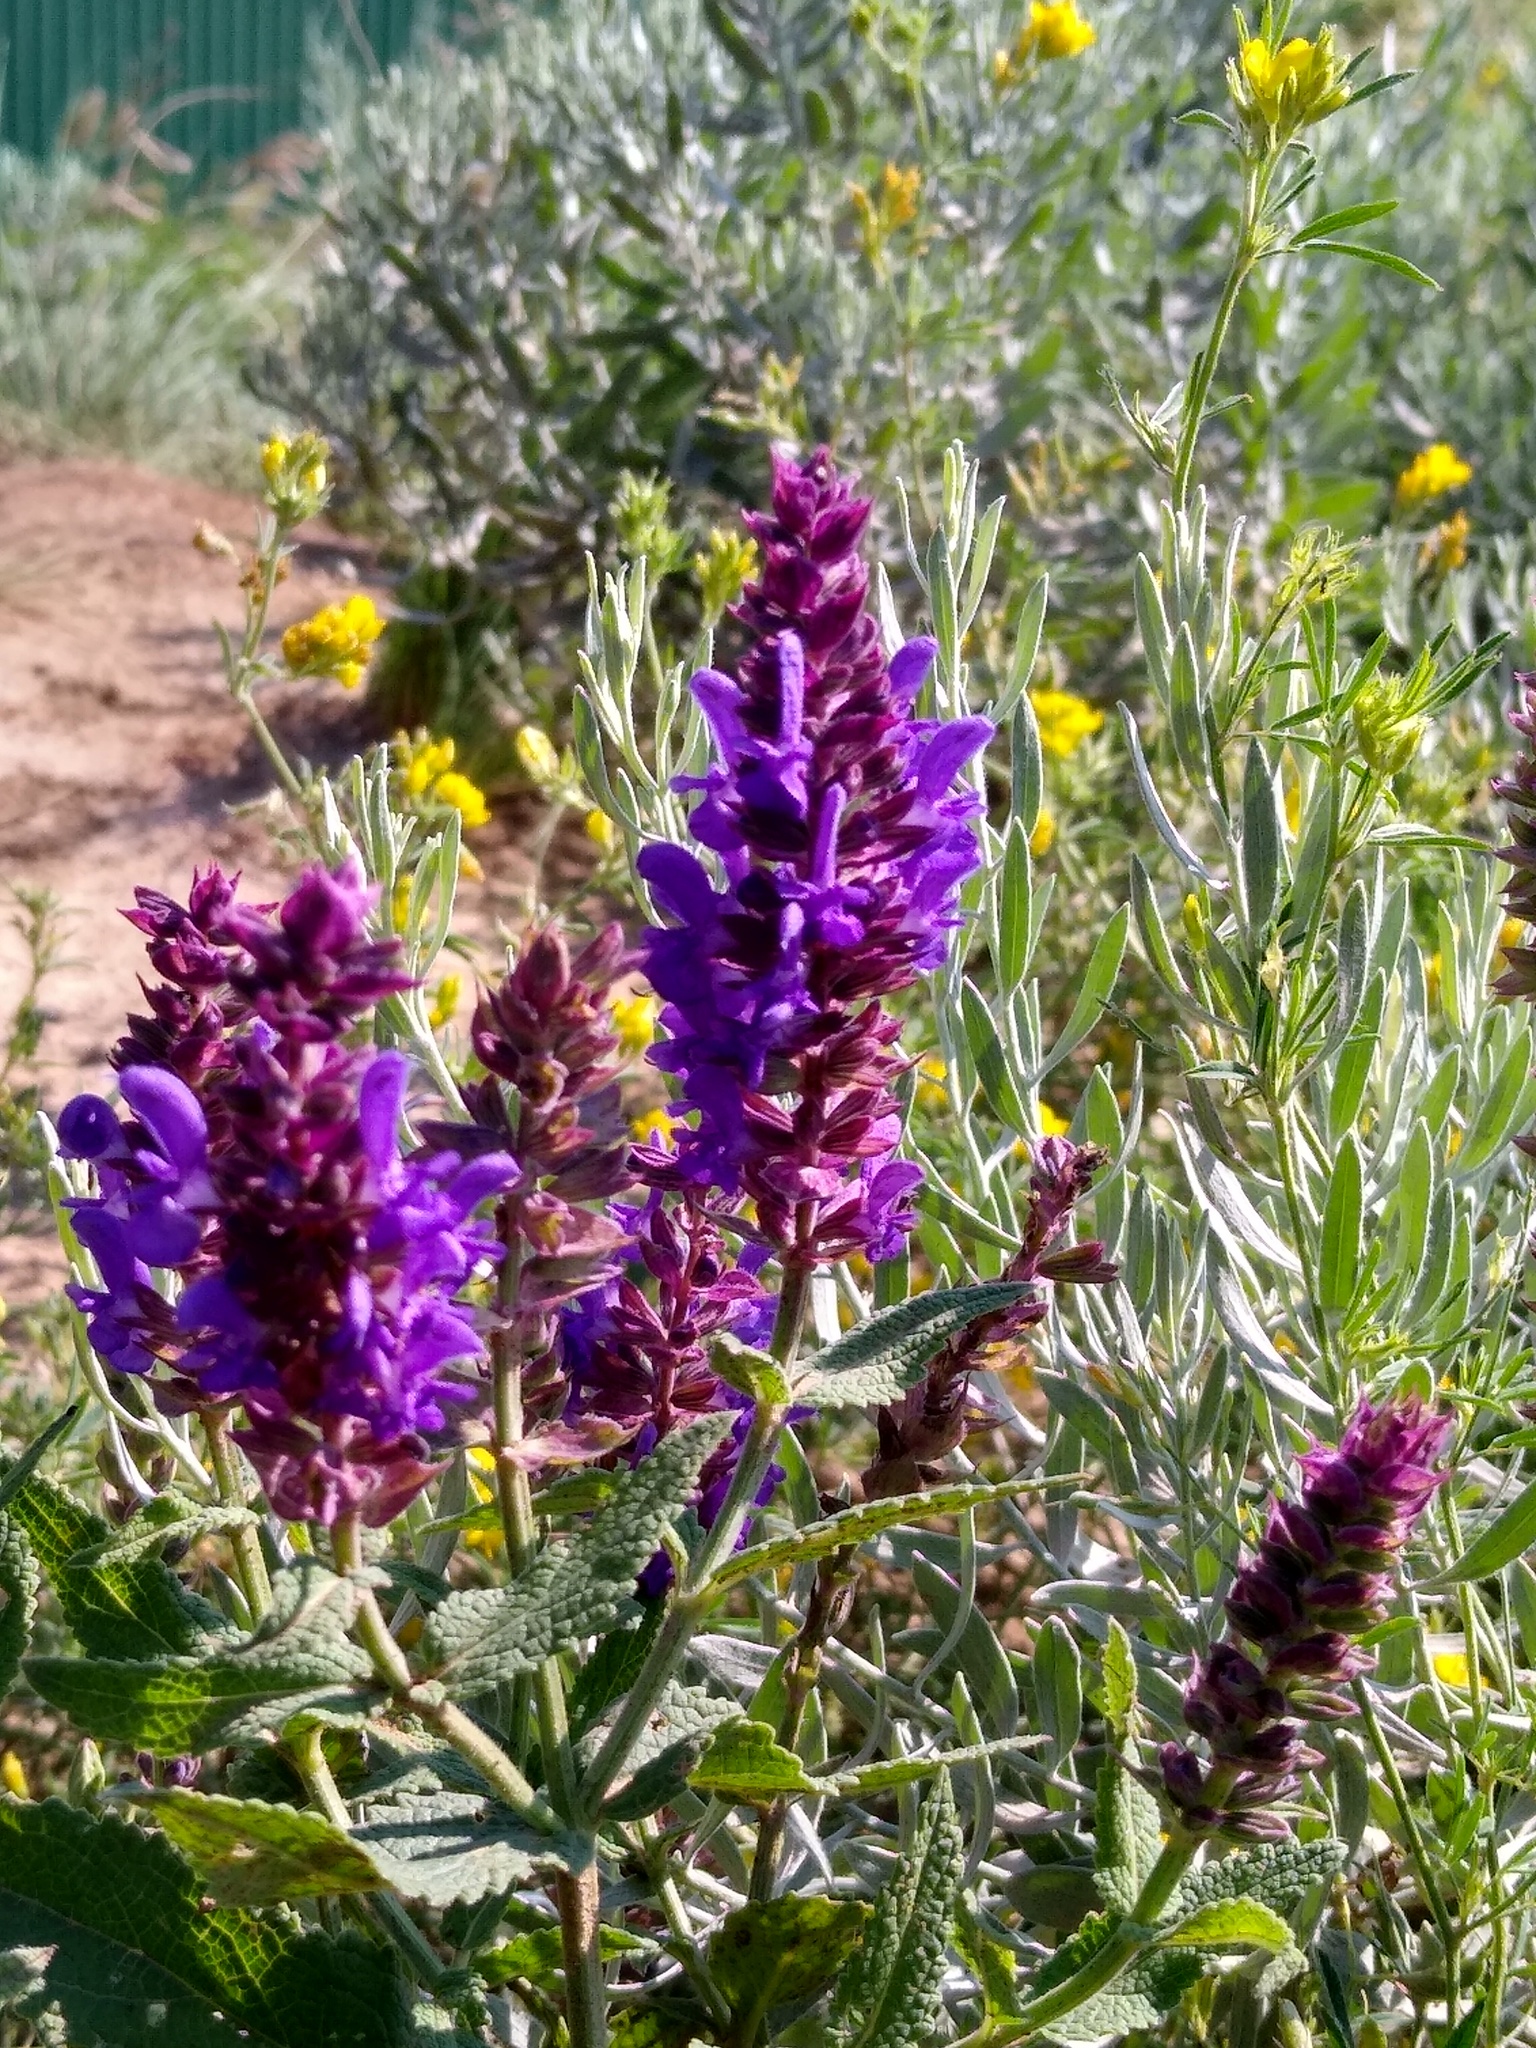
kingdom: Plantae
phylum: Tracheophyta
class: Magnoliopsida
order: Lamiales
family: Lamiaceae
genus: Salvia
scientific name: Salvia nemorosa
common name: Balkan clary
